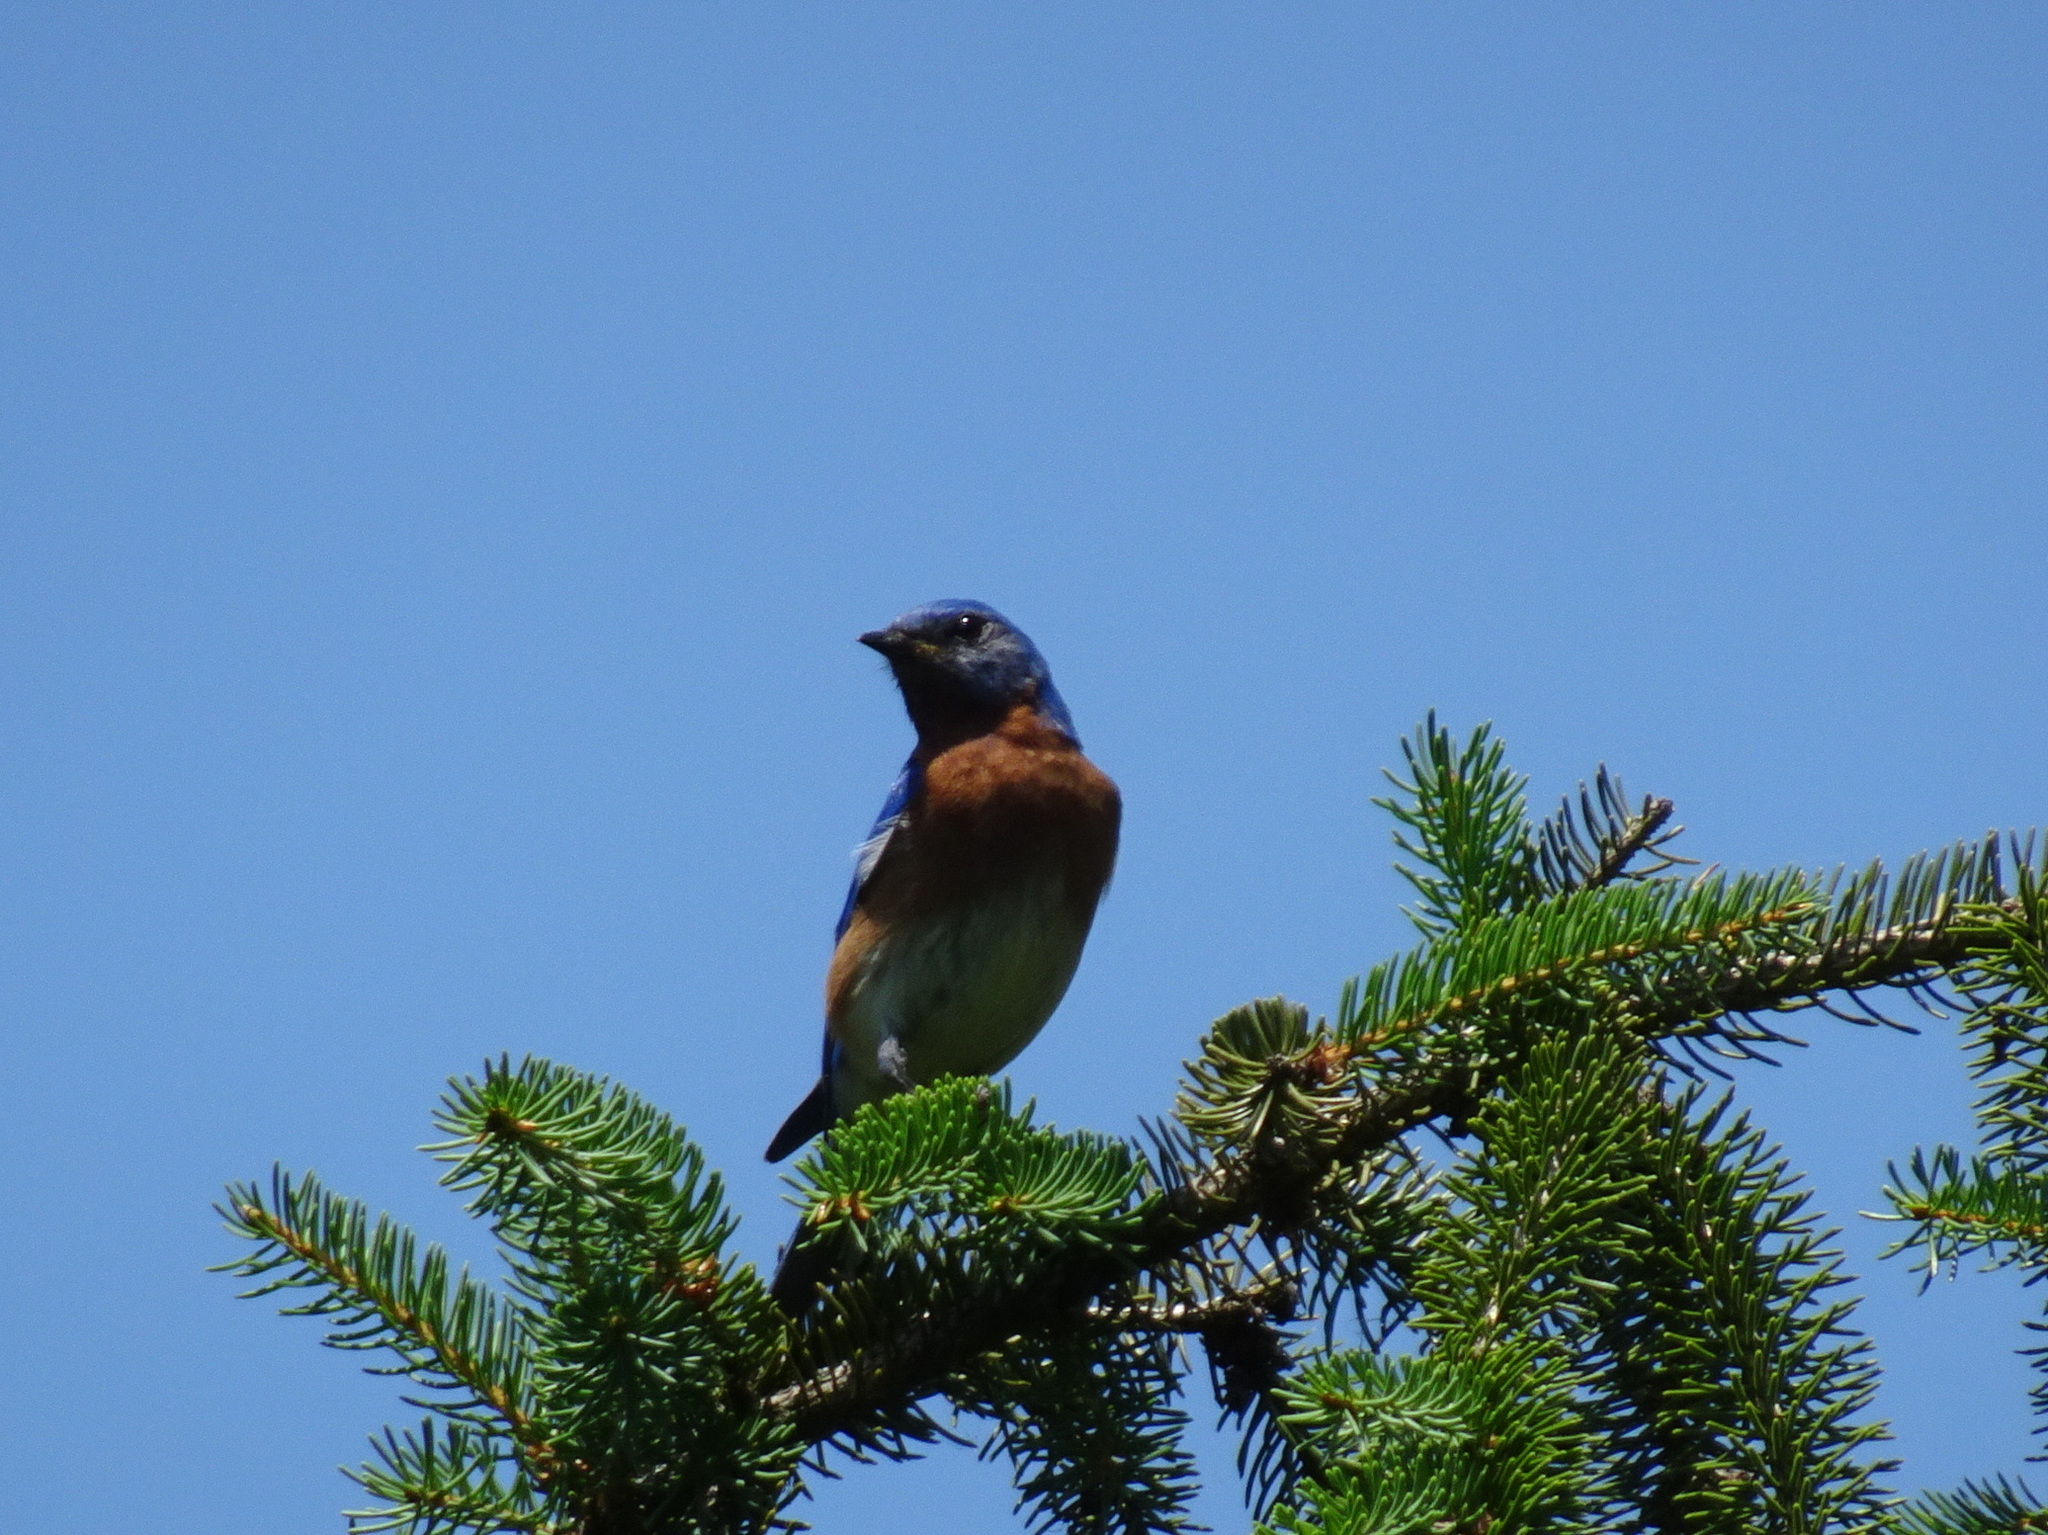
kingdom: Animalia
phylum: Chordata
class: Aves
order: Passeriformes
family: Turdidae
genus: Sialia
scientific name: Sialia sialis
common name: Eastern bluebird
